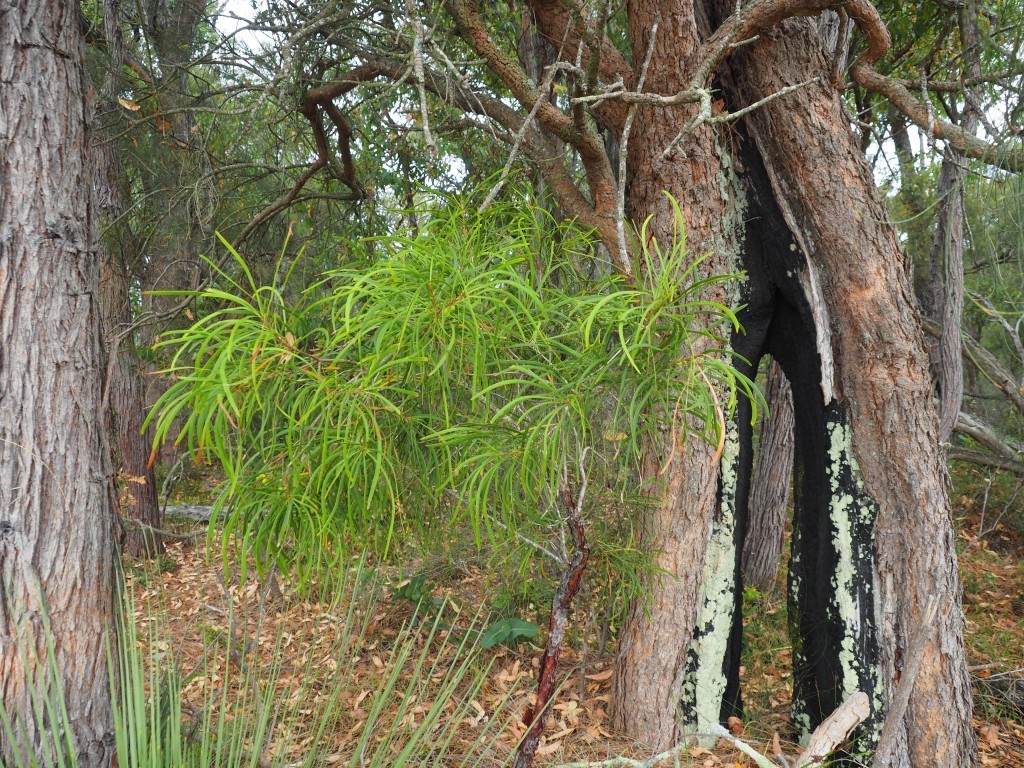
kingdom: Plantae
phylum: Tracheophyta
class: Magnoliopsida
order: Proteales
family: Proteaceae
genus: Persoonia
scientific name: Persoonia longifolia
